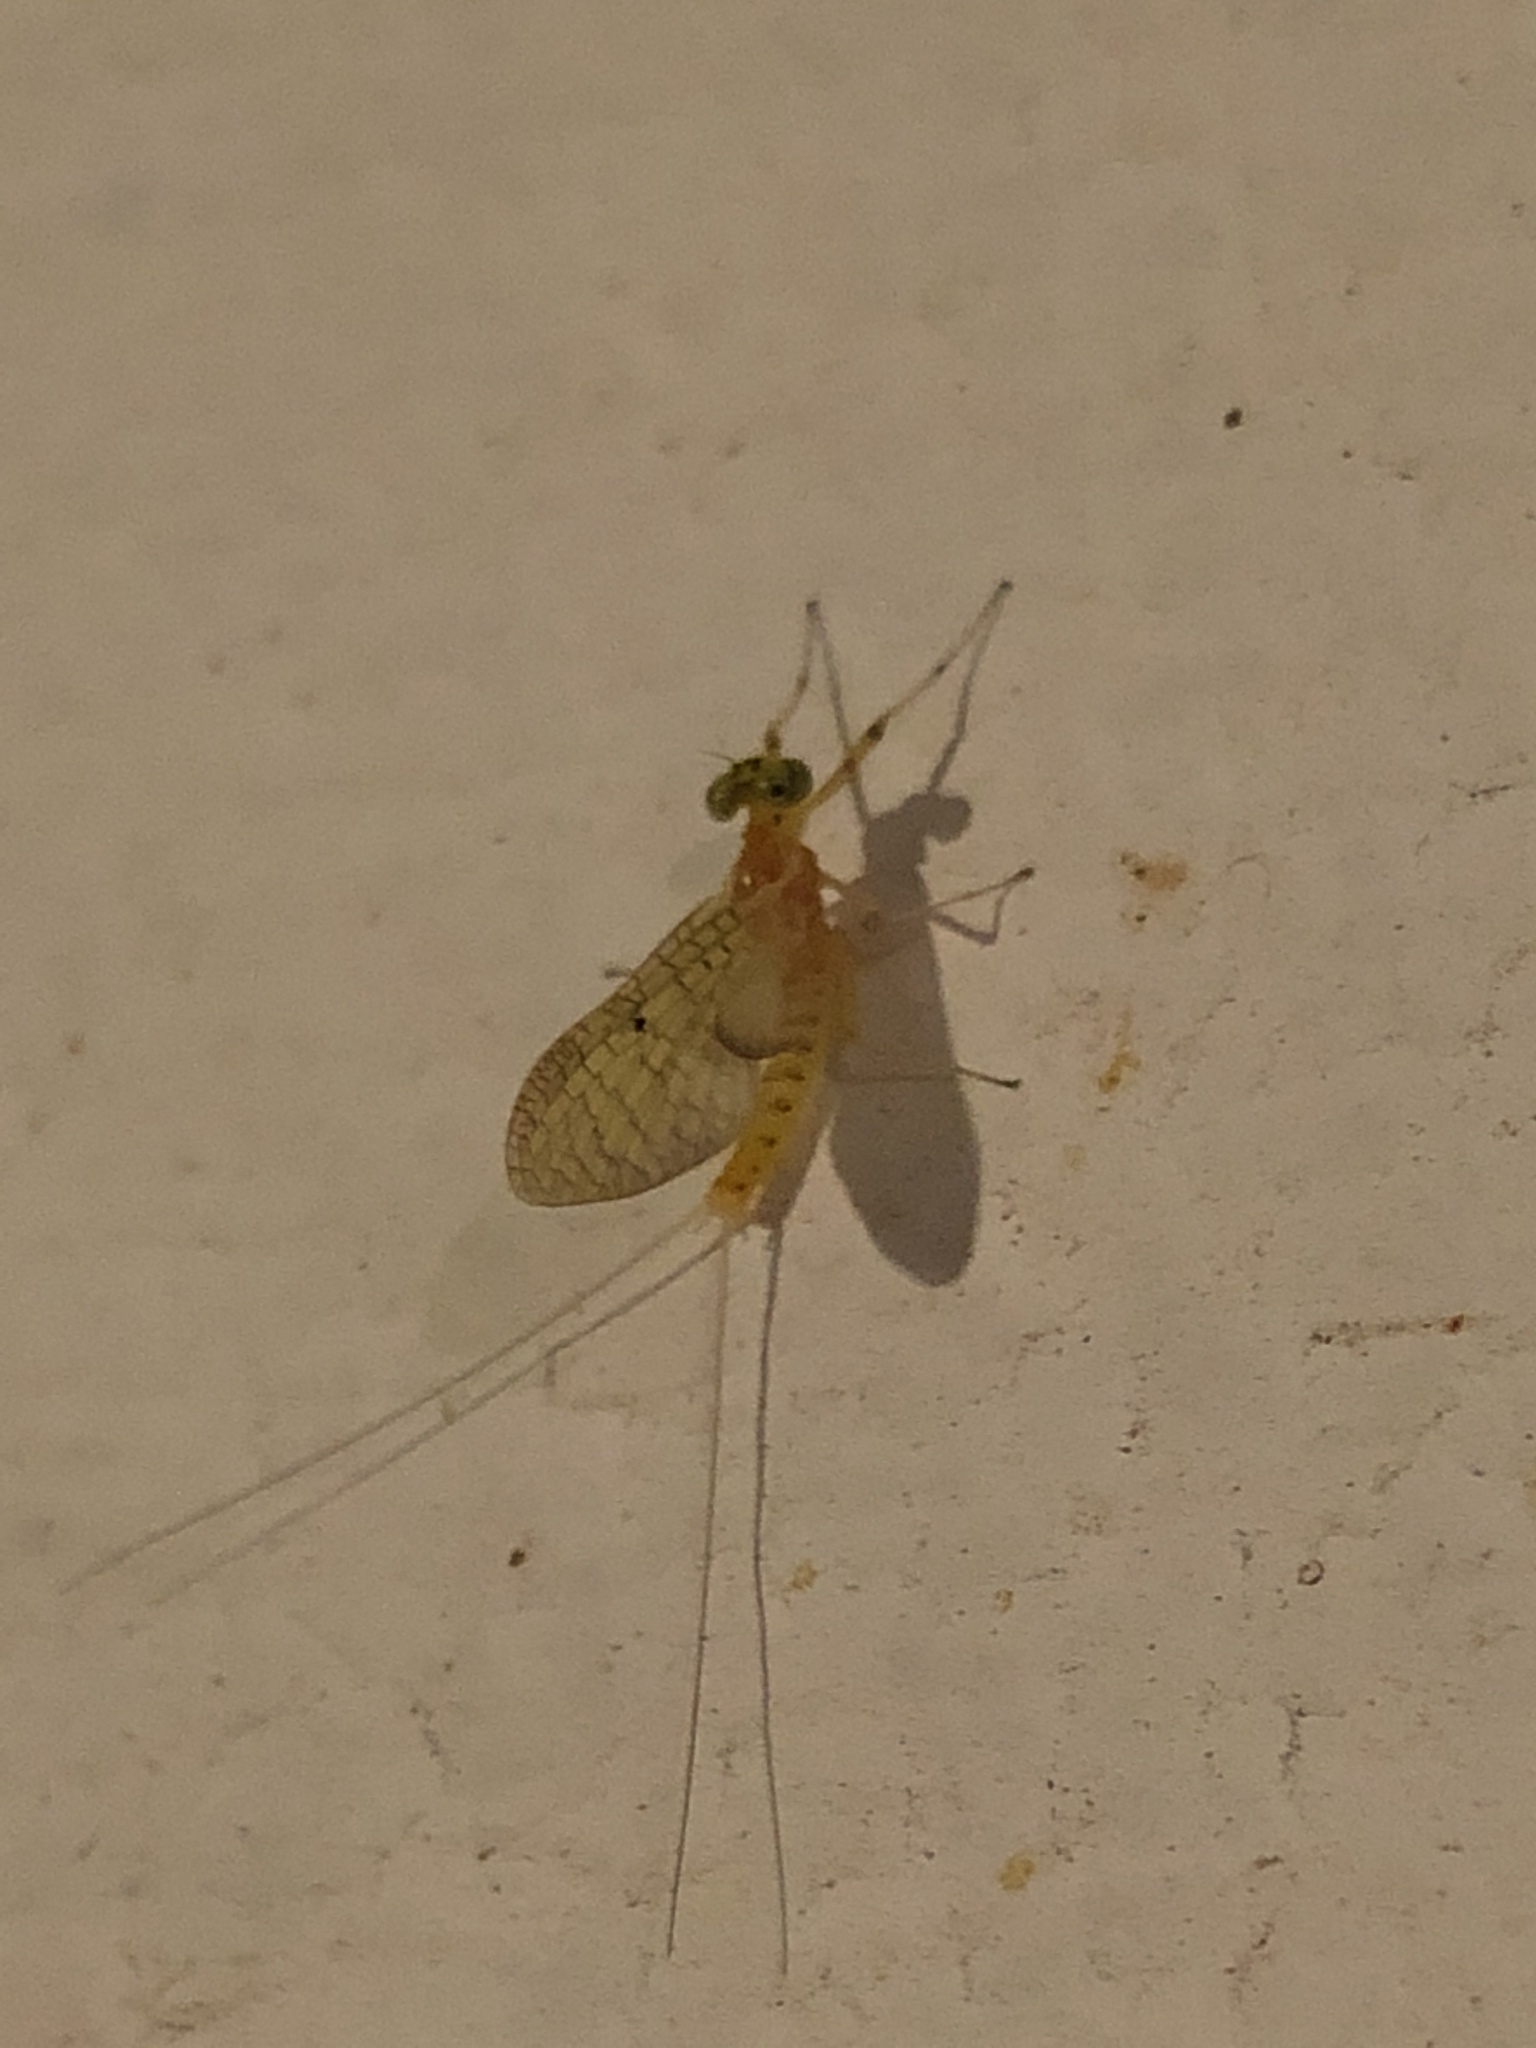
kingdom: Animalia
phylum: Arthropoda
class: Insecta
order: Ephemeroptera
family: Heptageniidae
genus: Stenacron
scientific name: Stenacron interpunctatum
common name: Orange cahill
